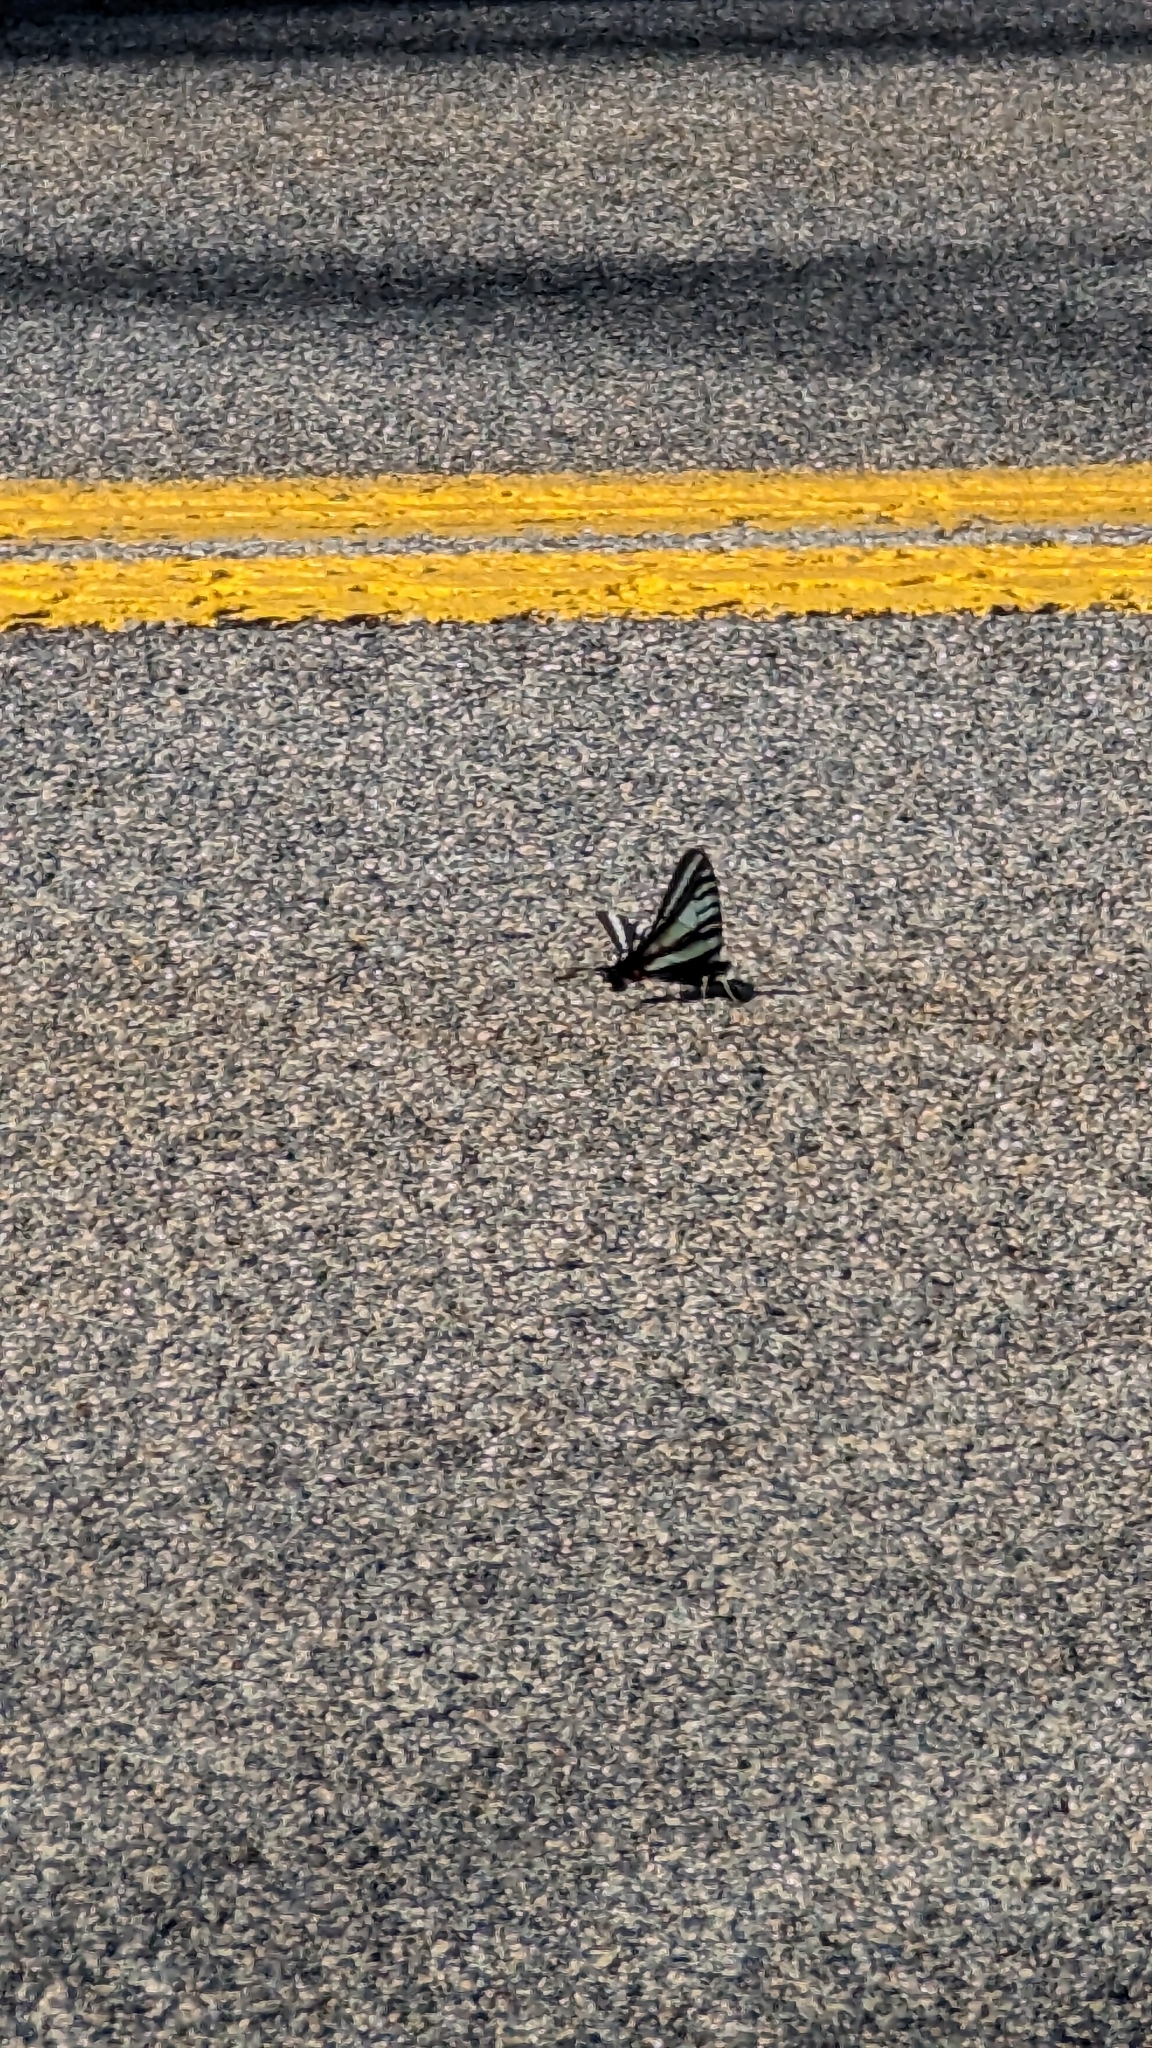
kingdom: Animalia
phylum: Arthropoda
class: Insecta
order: Lepidoptera
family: Papilionidae
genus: Protographium
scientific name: Protographium marcellus
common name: Zebra swallowtail
